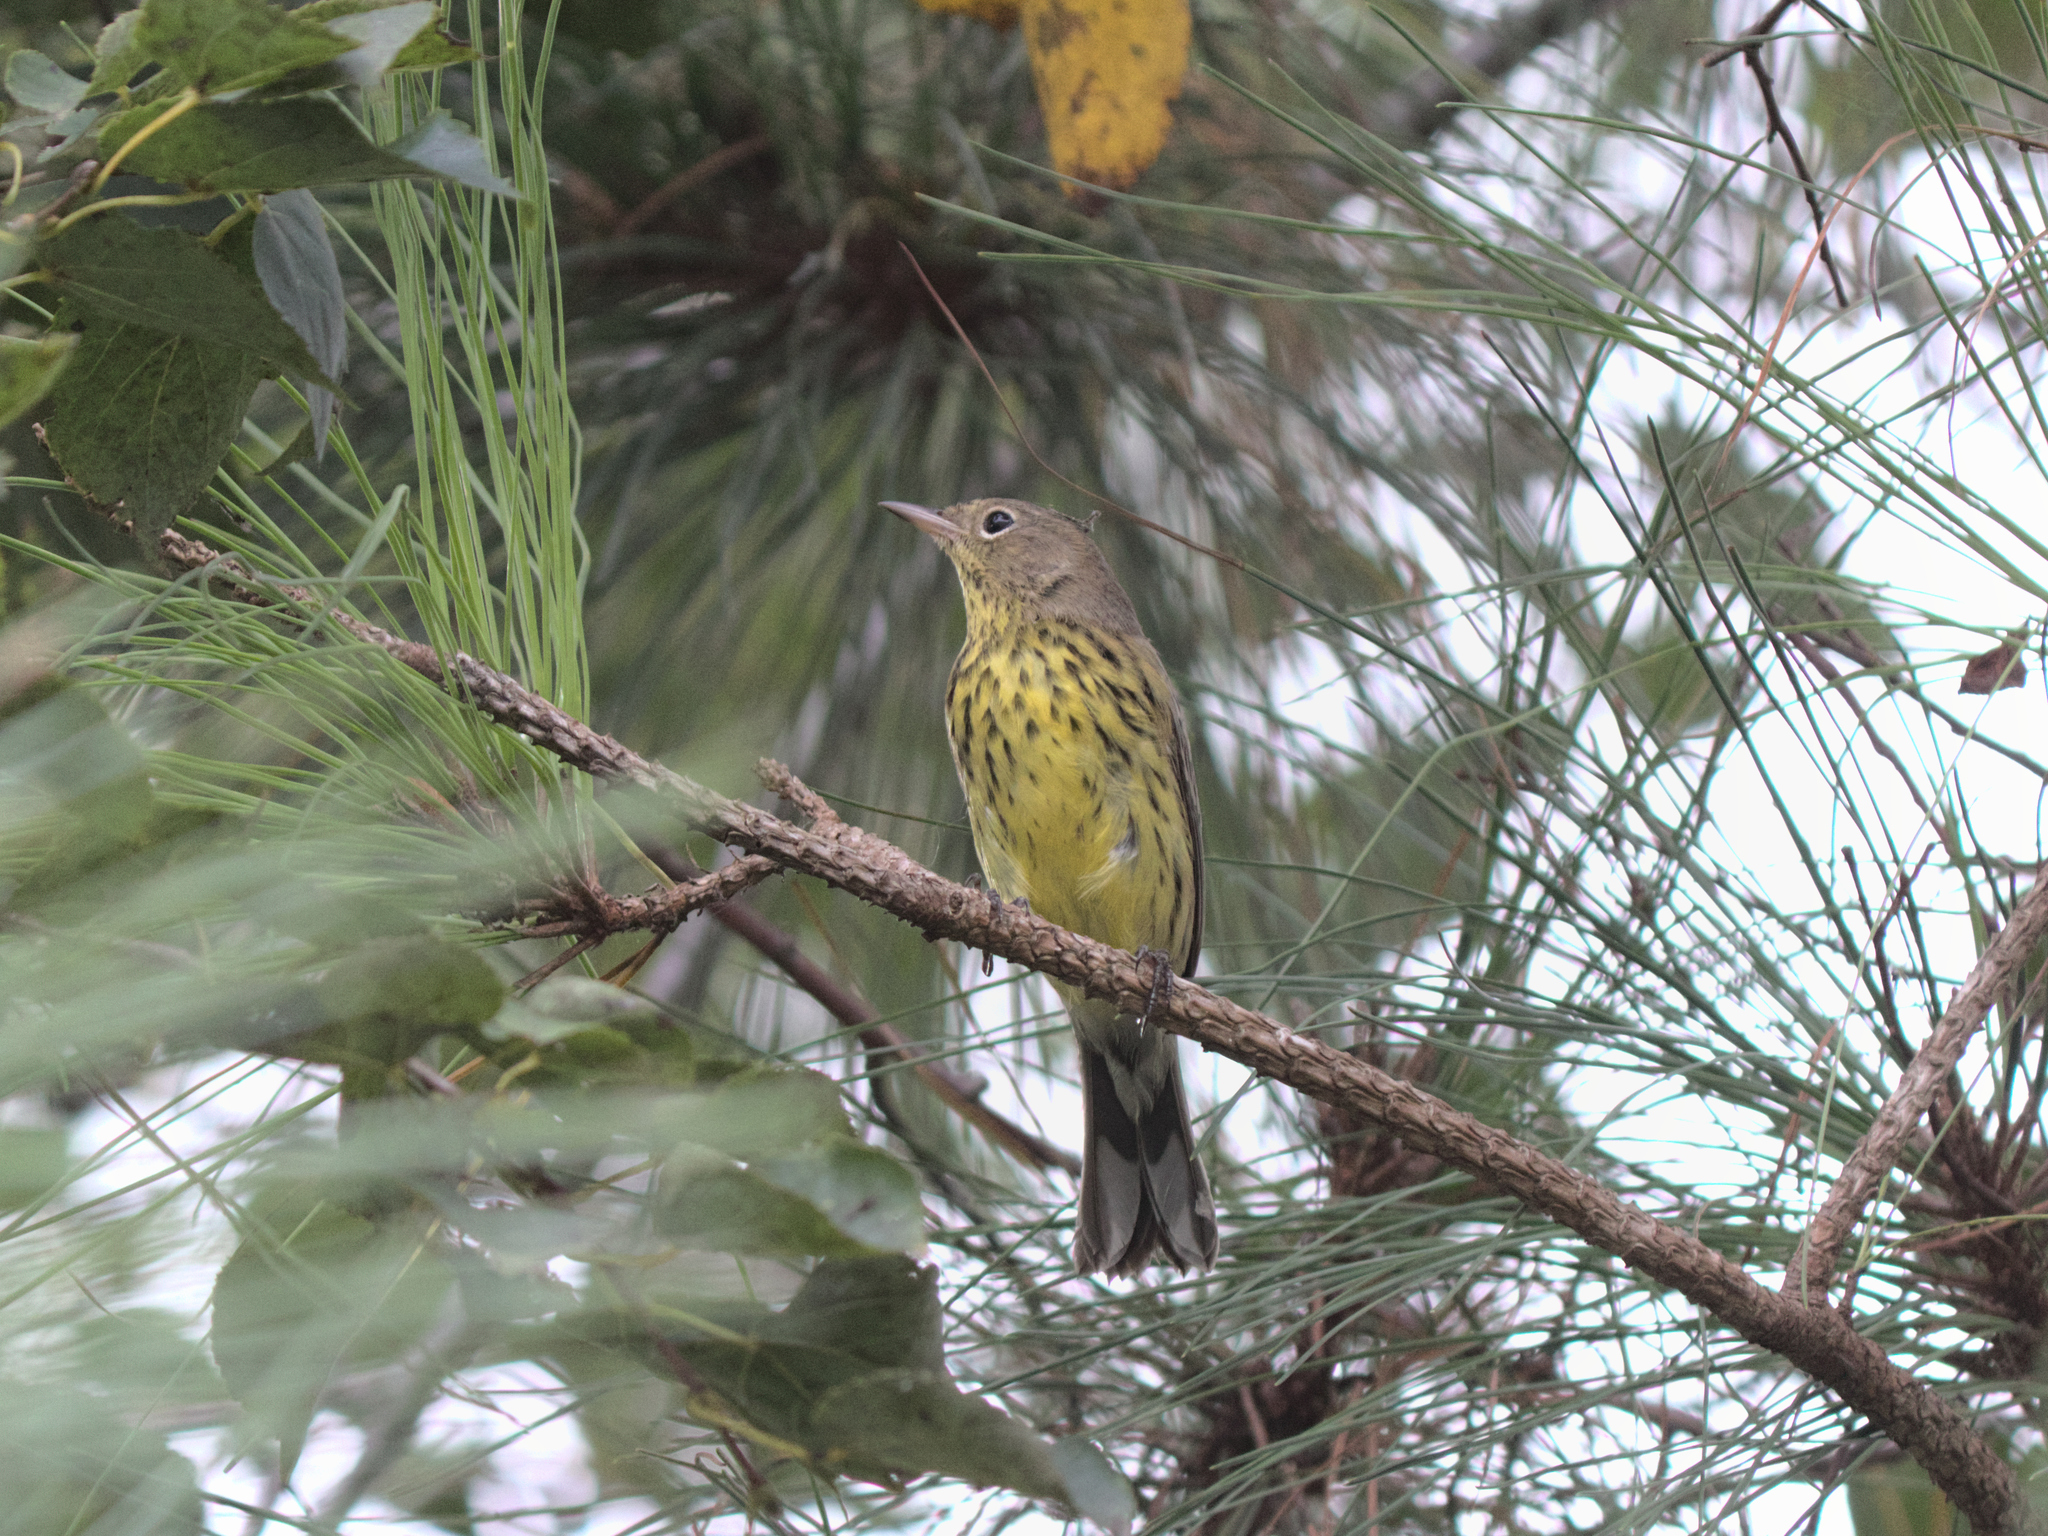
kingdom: Animalia
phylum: Chordata
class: Aves
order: Passeriformes
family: Parulidae
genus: Setophaga
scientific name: Setophaga kirtlandii
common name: Kirtland's warbler
